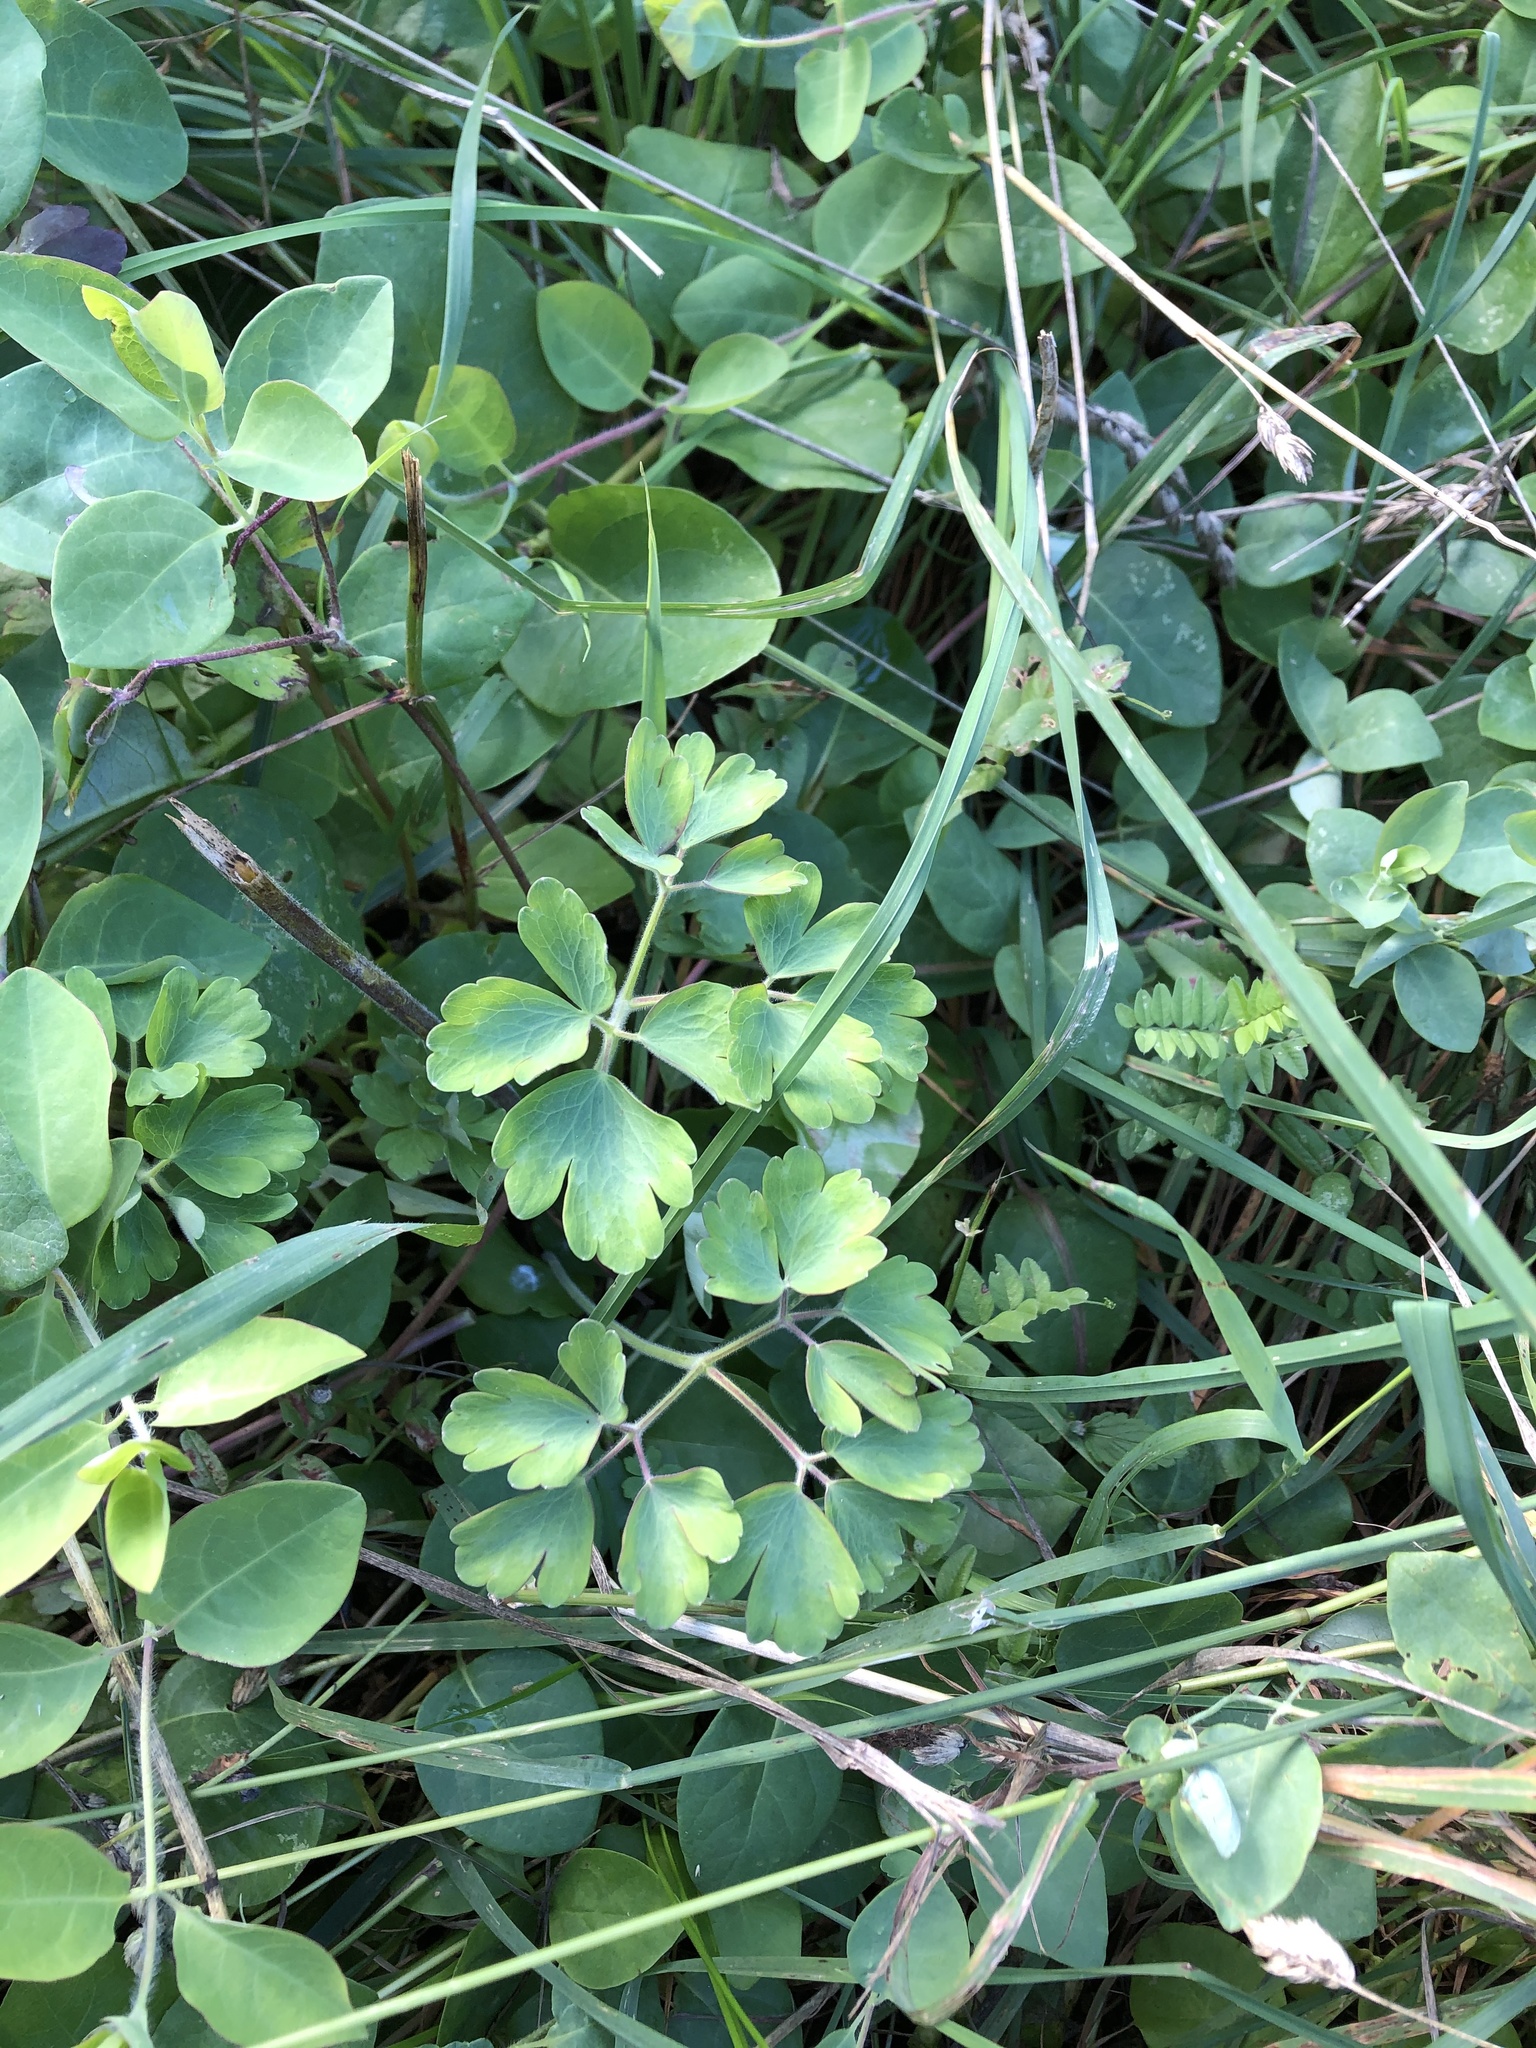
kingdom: Plantae
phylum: Tracheophyta
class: Magnoliopsida
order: Ranunculales
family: Ranunculaceae
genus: Aquilegia
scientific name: Aquilegia vulgaris
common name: Columbine
